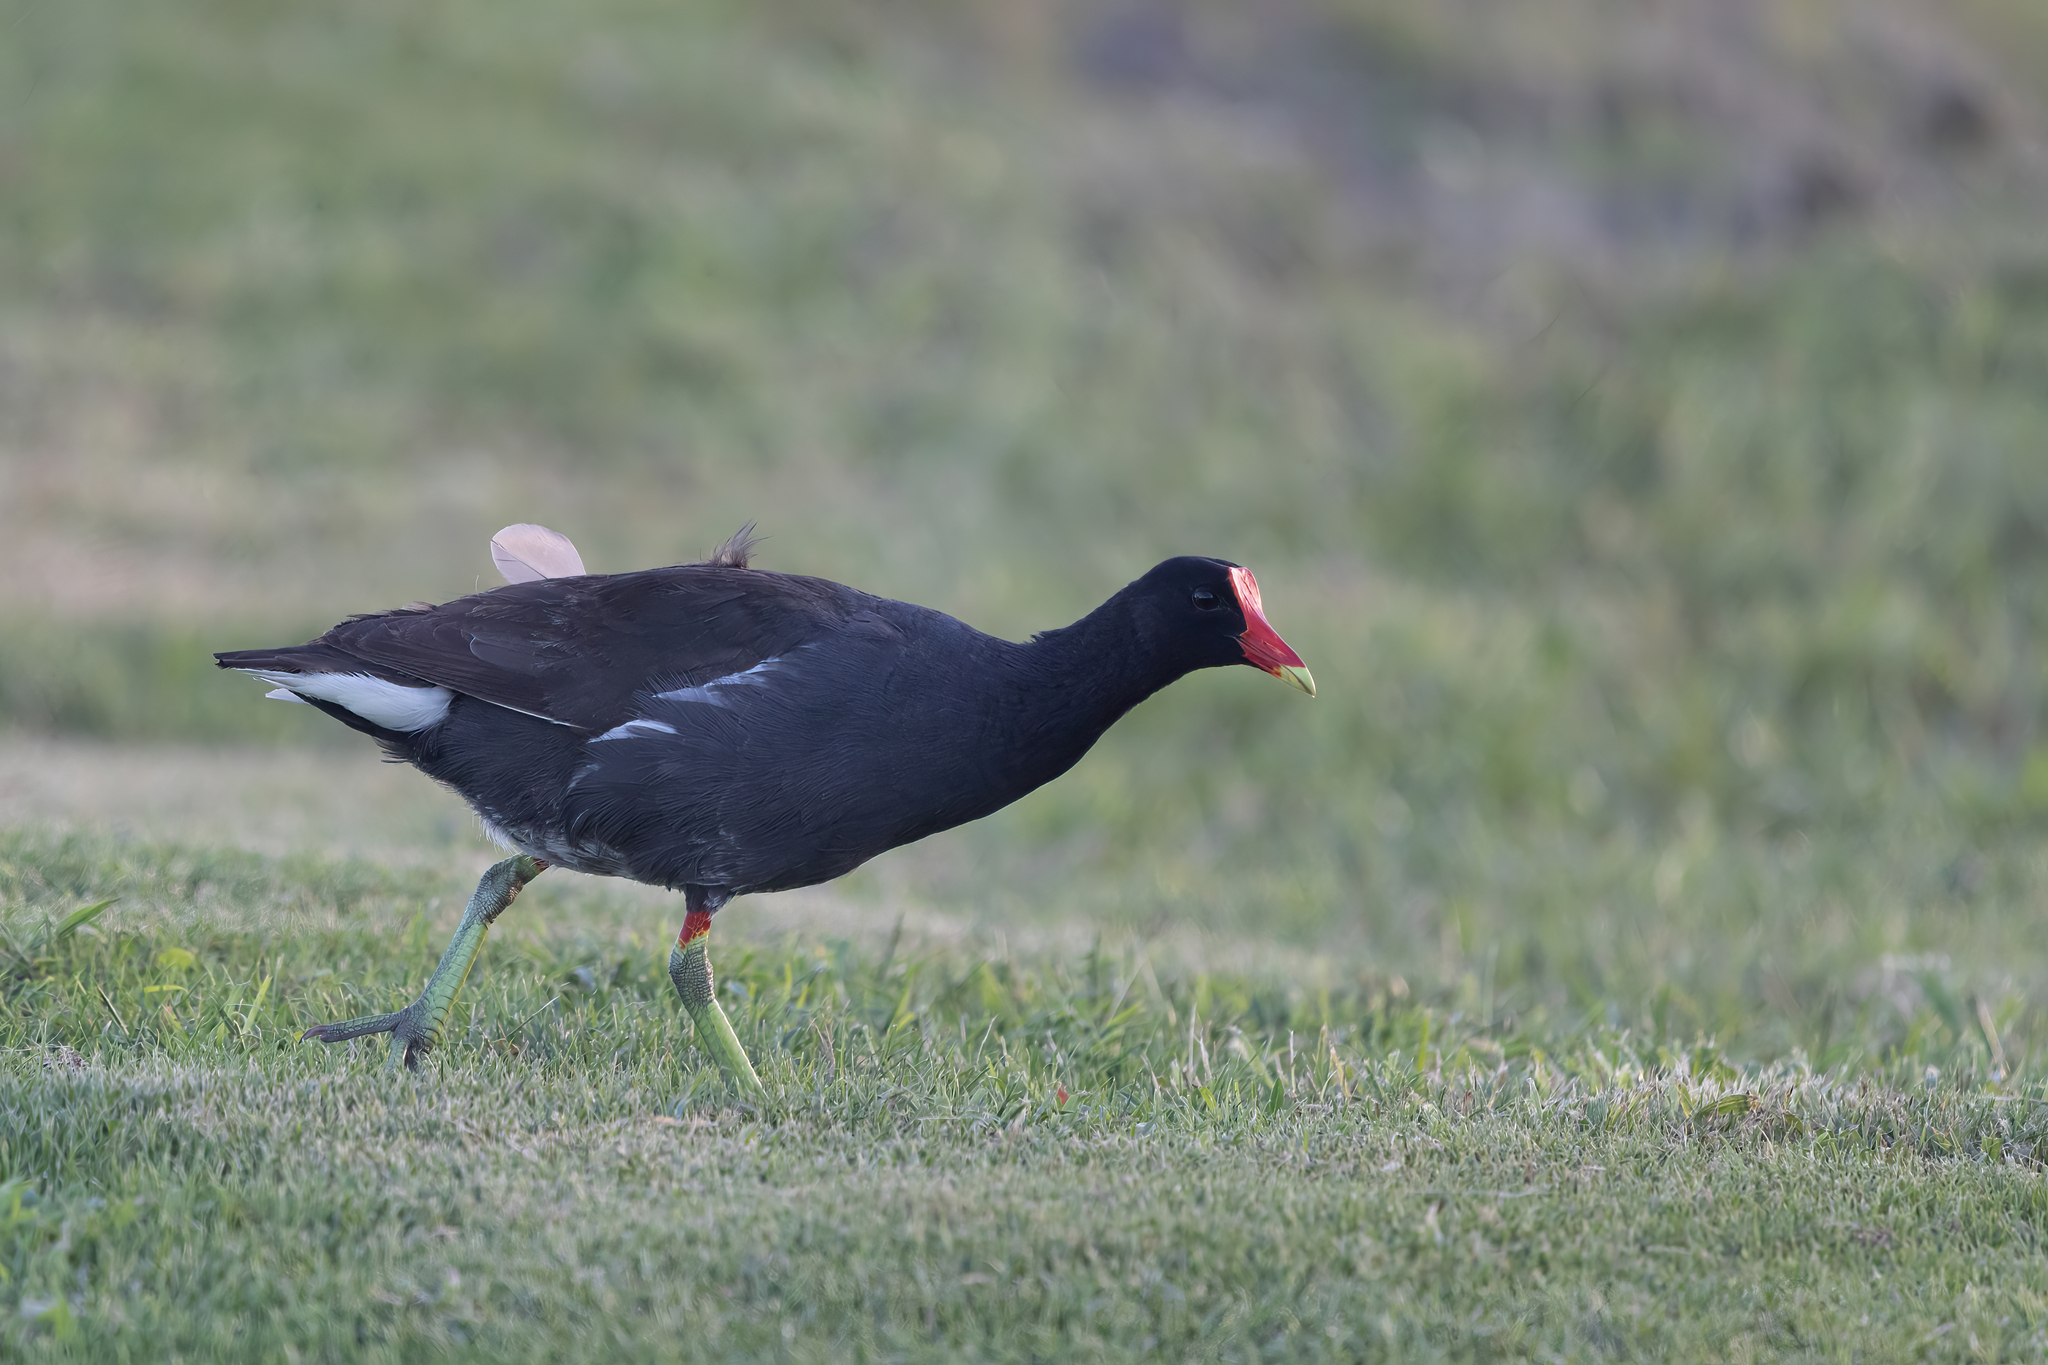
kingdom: Animalia
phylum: Chordata
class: Aves
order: Gruiformes
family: Rallidae
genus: Gallinula
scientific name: Gallinula chloropus
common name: Common moorhen
